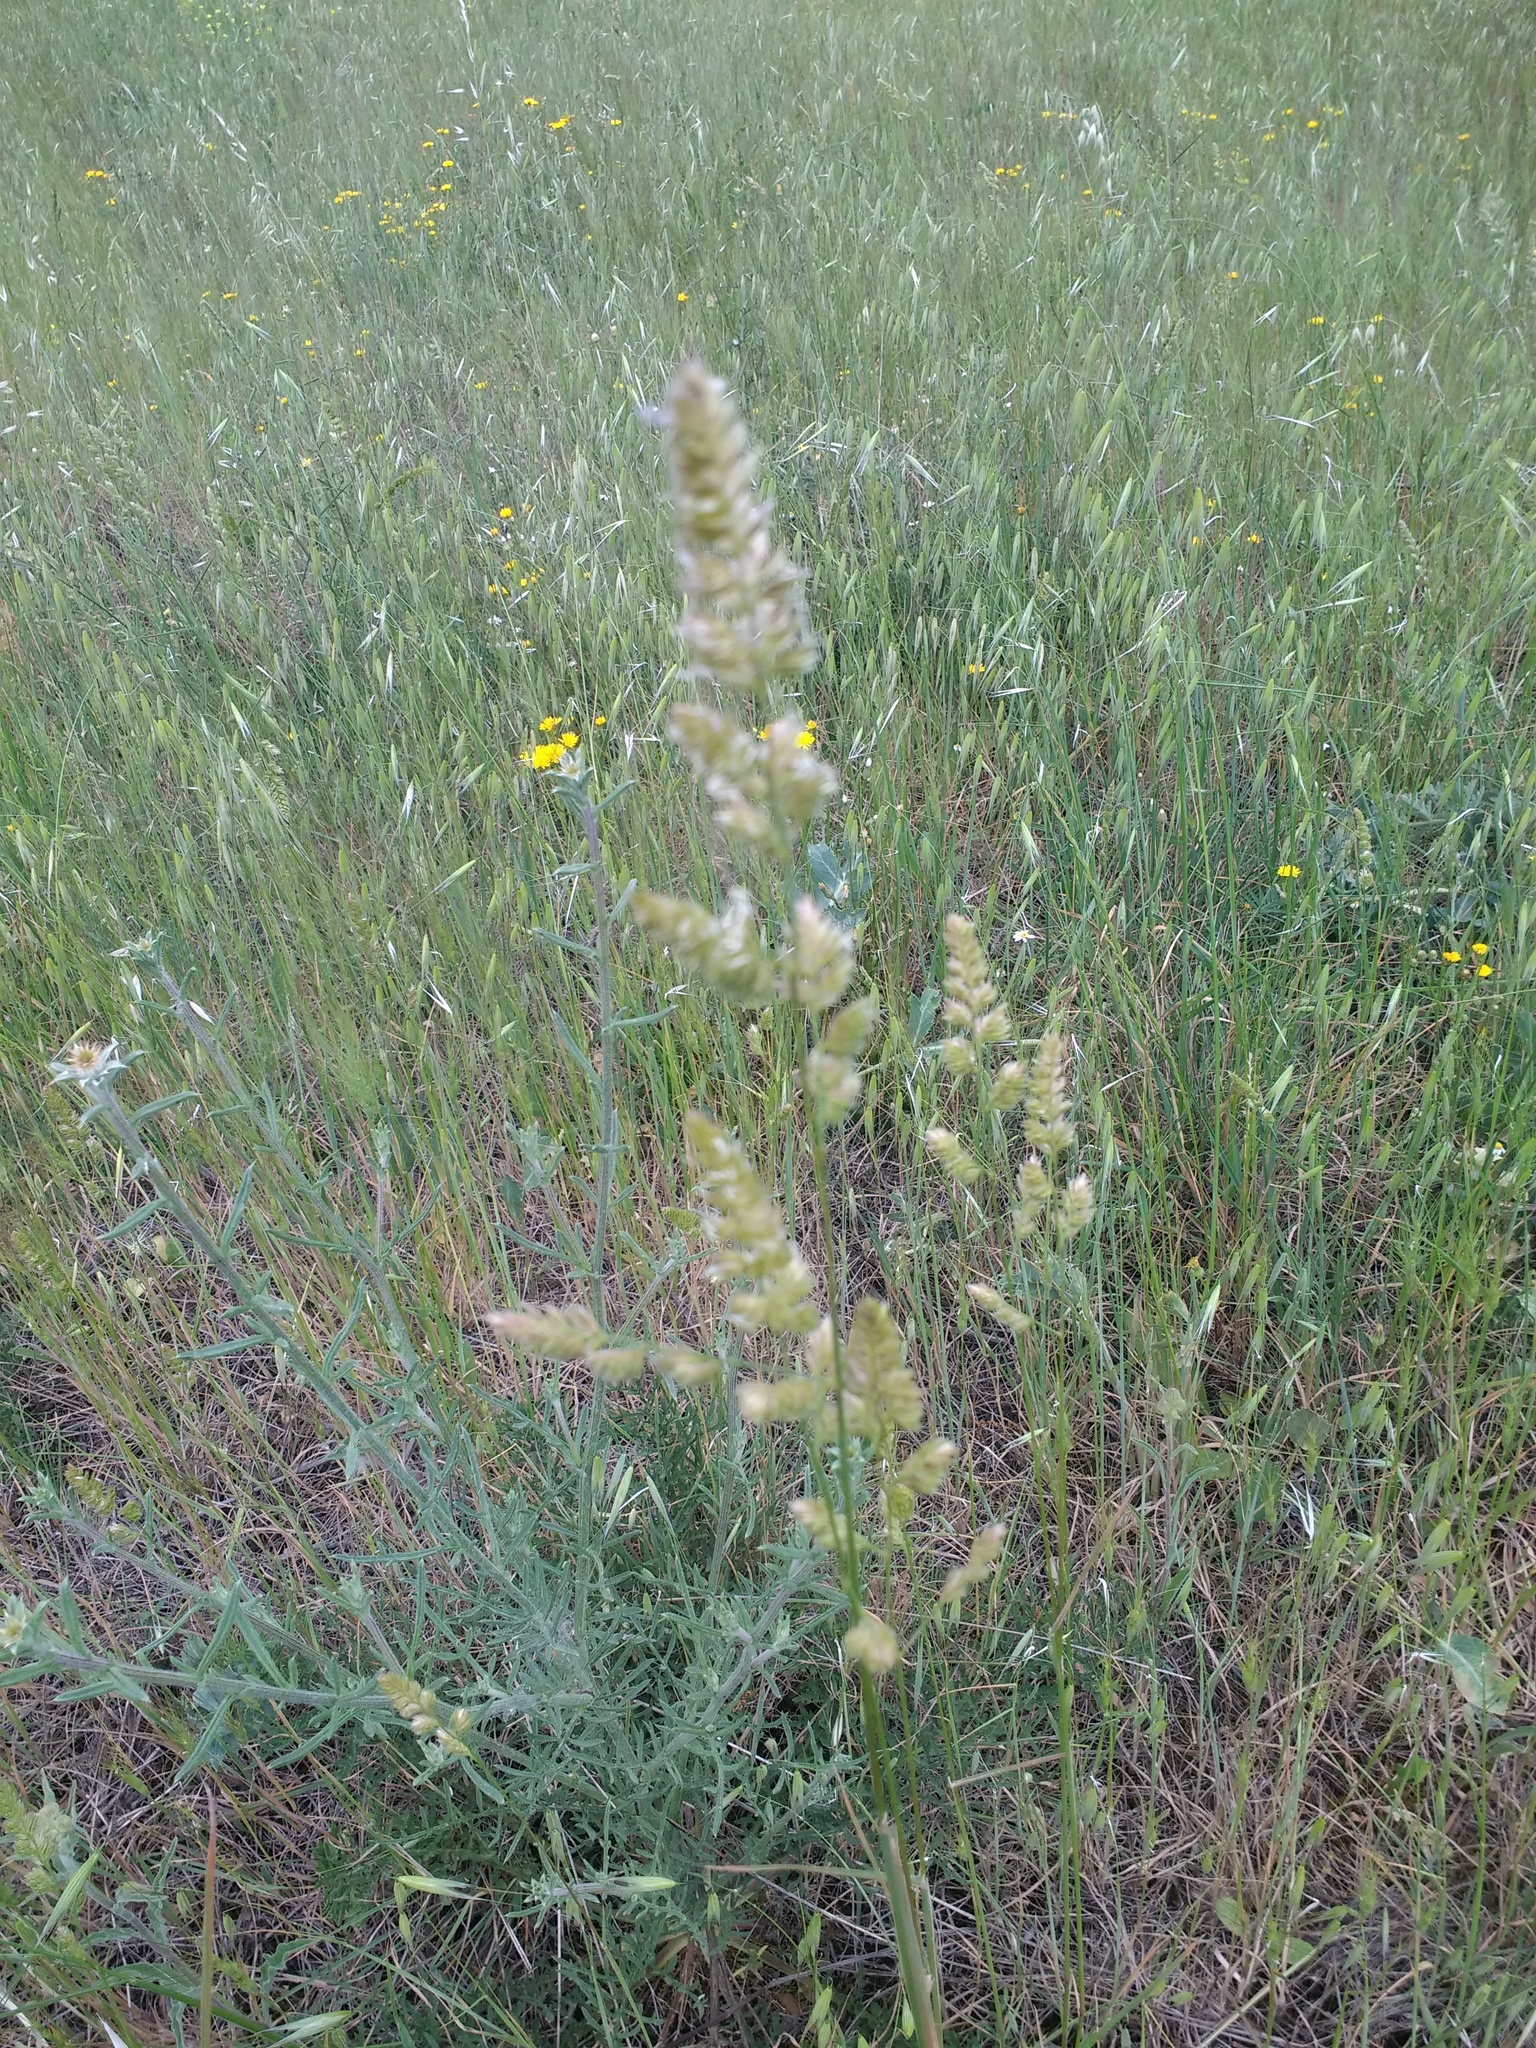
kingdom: Plantae
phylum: Tracheophyta
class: Liliopsida
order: Poales
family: Poaceae
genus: Dactylis
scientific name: Dactylis glomerata
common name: Orchardgrass
